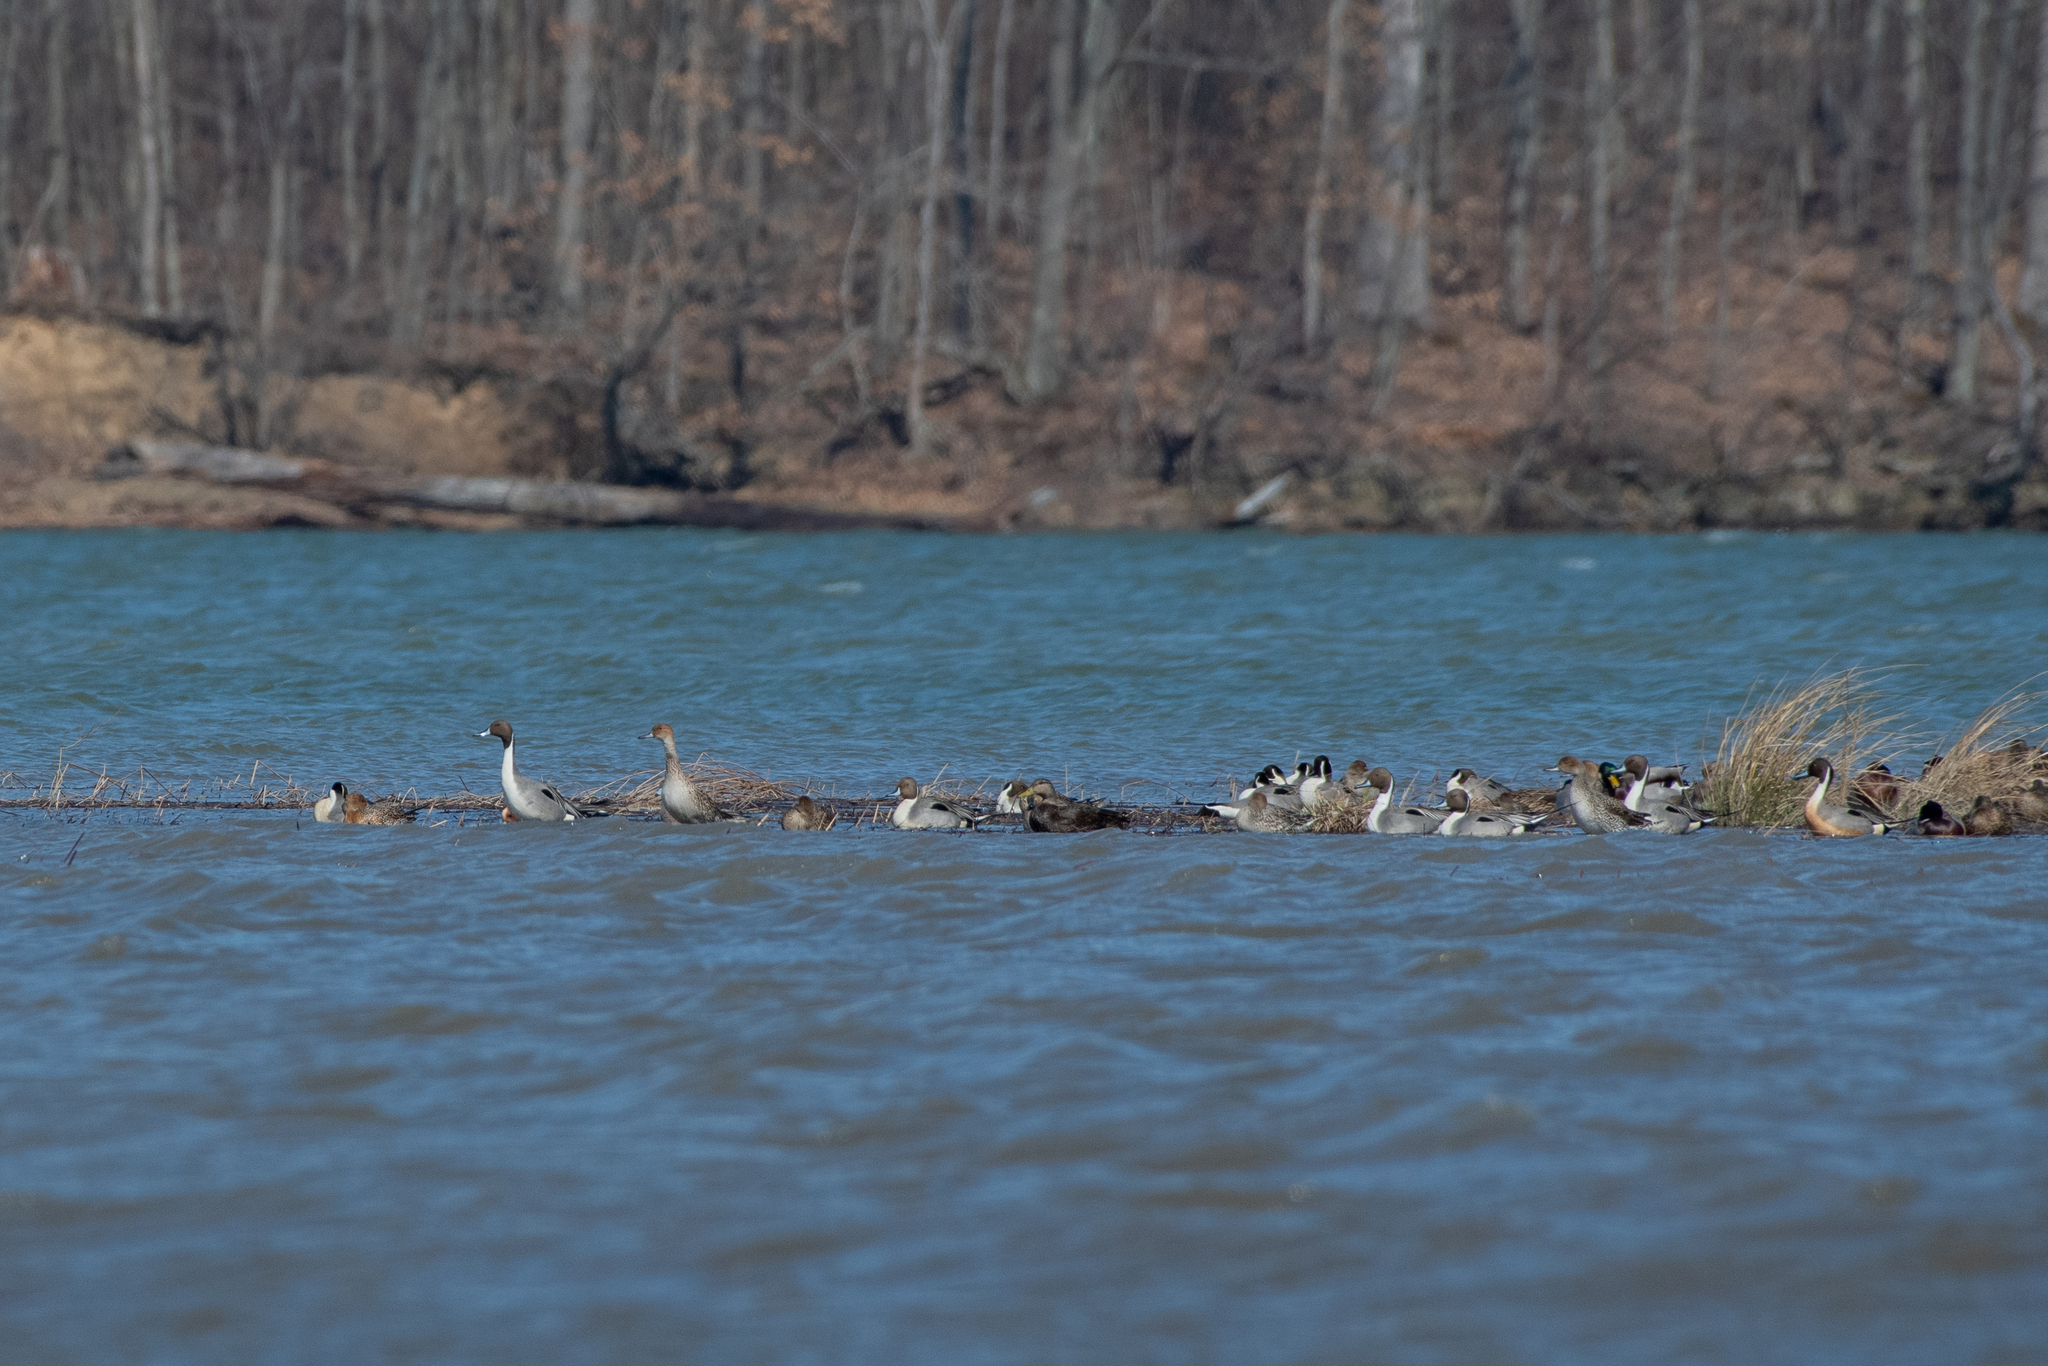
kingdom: Animalia
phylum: Chordata
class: Aves
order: Anseriformes
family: Anatidae
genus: Anas
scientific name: Anas acuta
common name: Northern pintail
